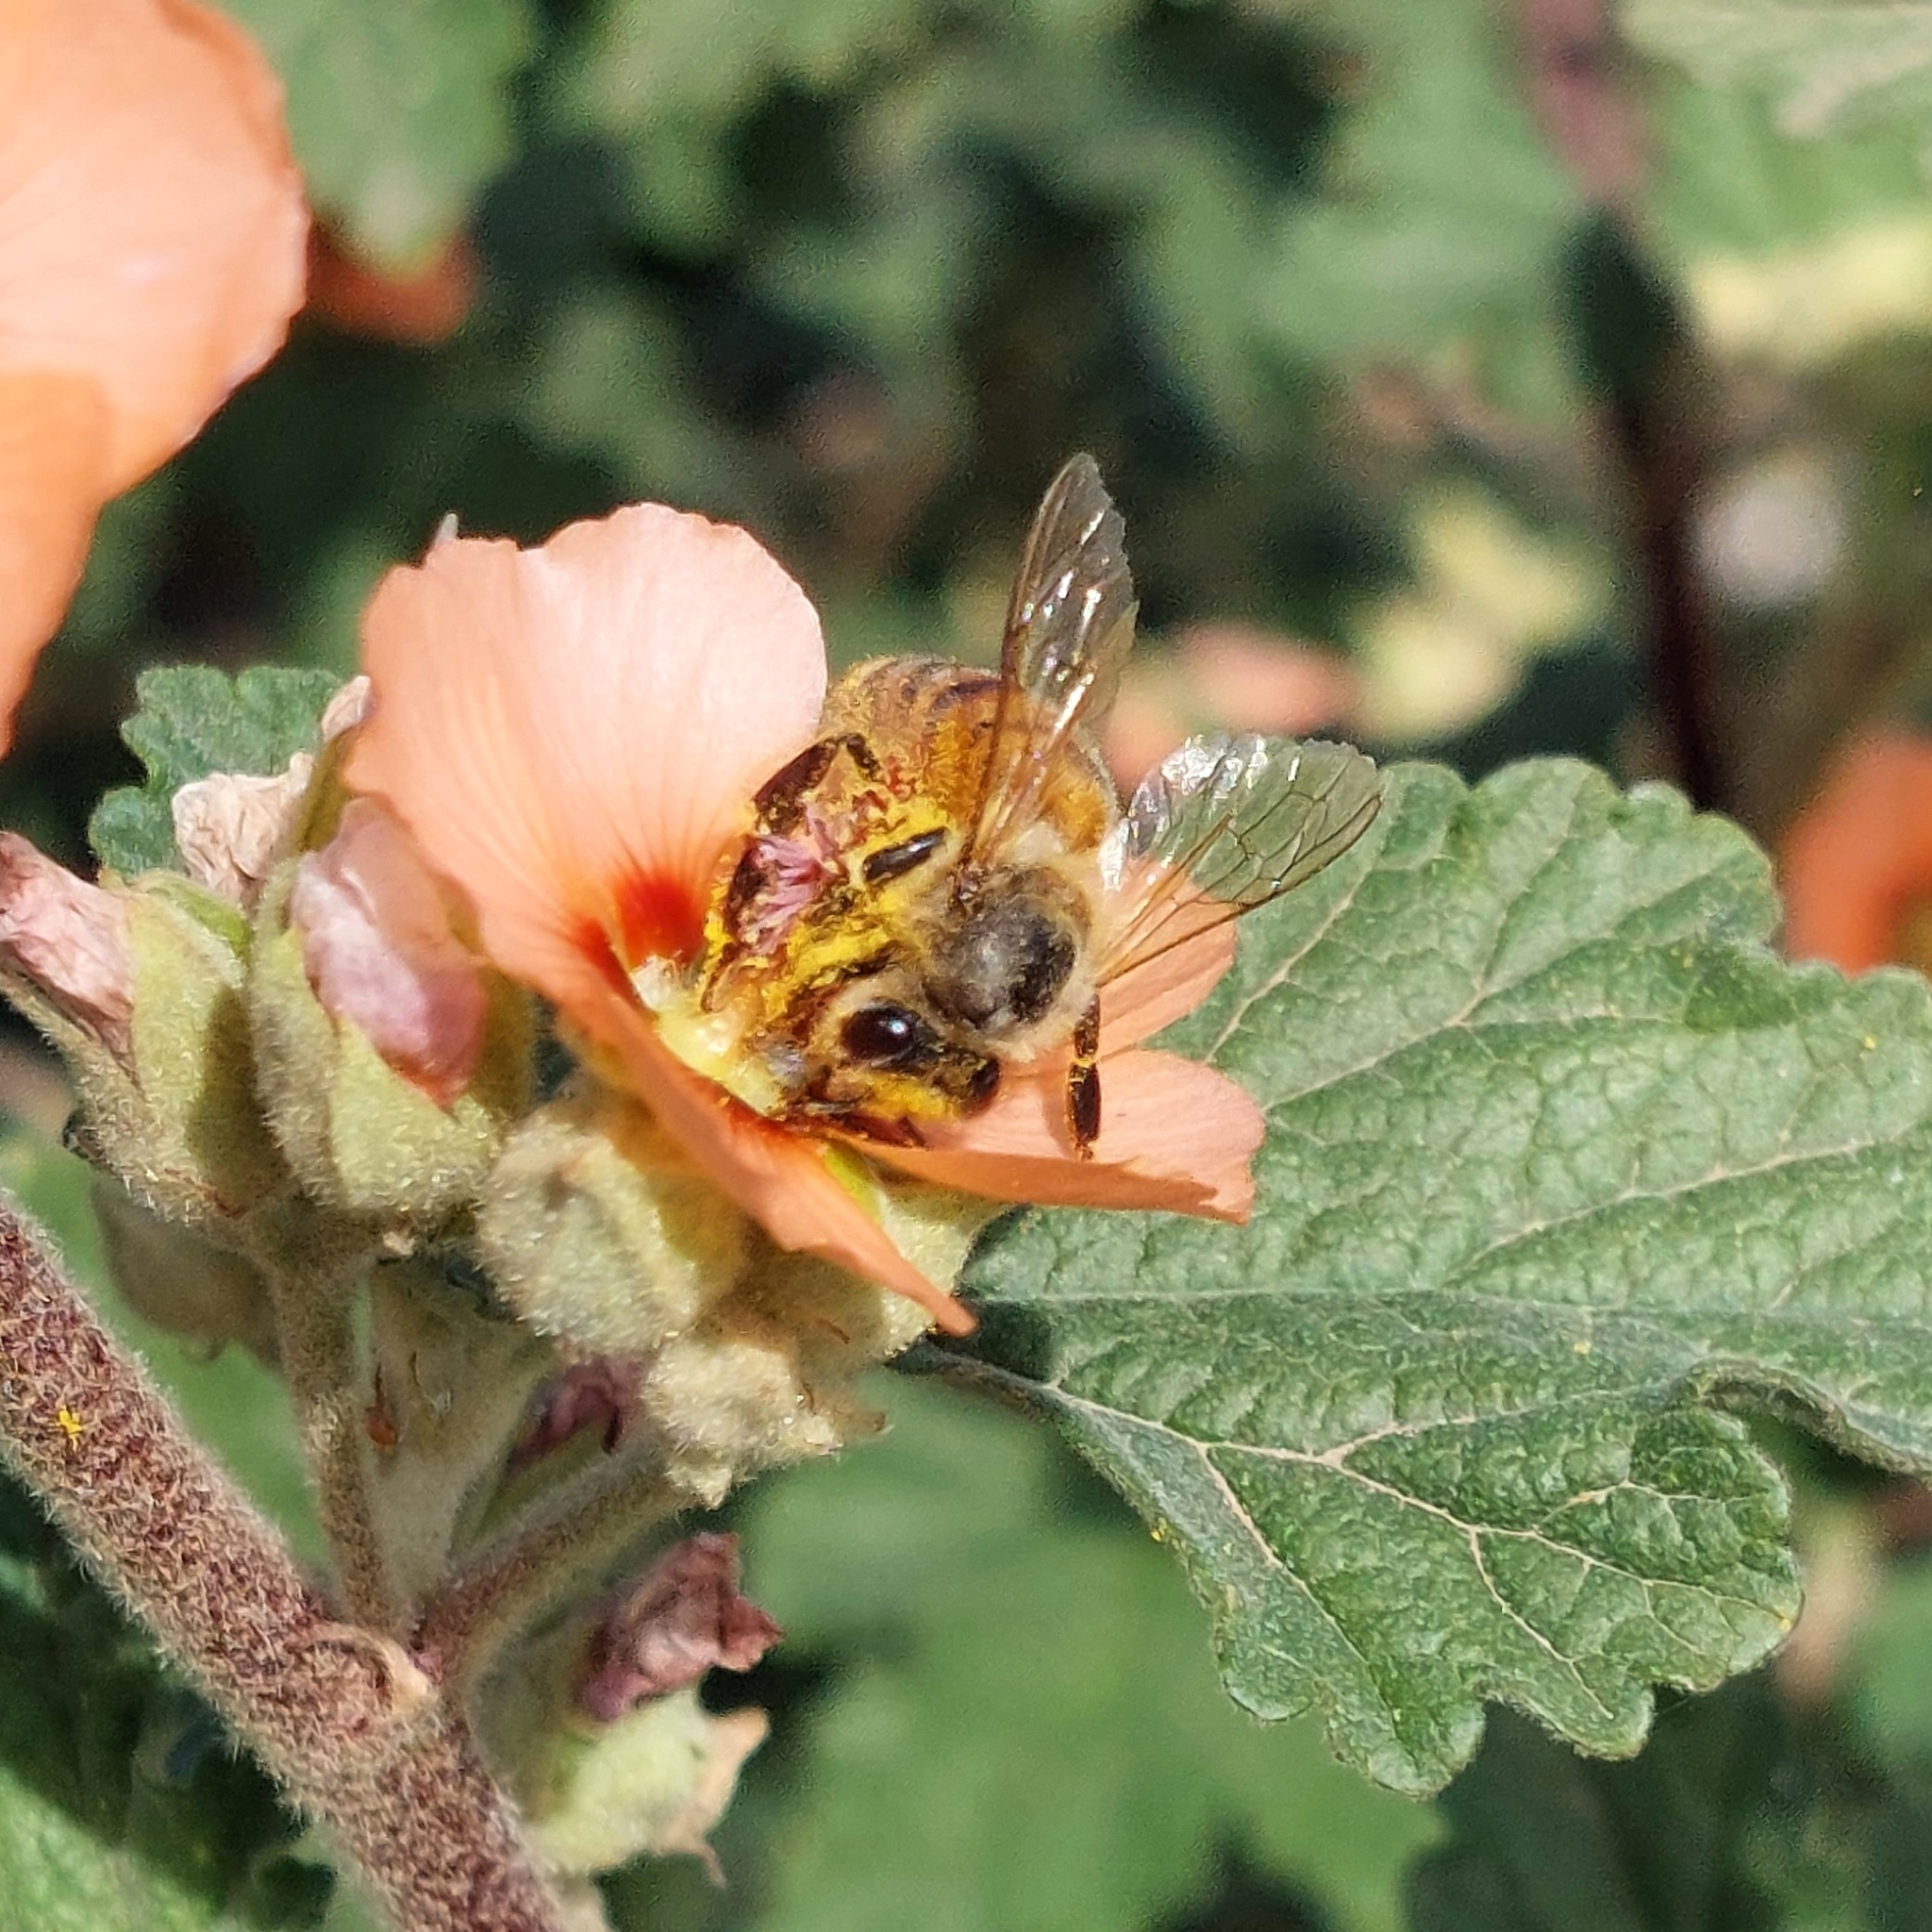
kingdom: Animalia
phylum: Arthropoda
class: Insecta
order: Hymenoptera
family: Apidae
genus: Apis
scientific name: Apis mellifera
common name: Honey bee
